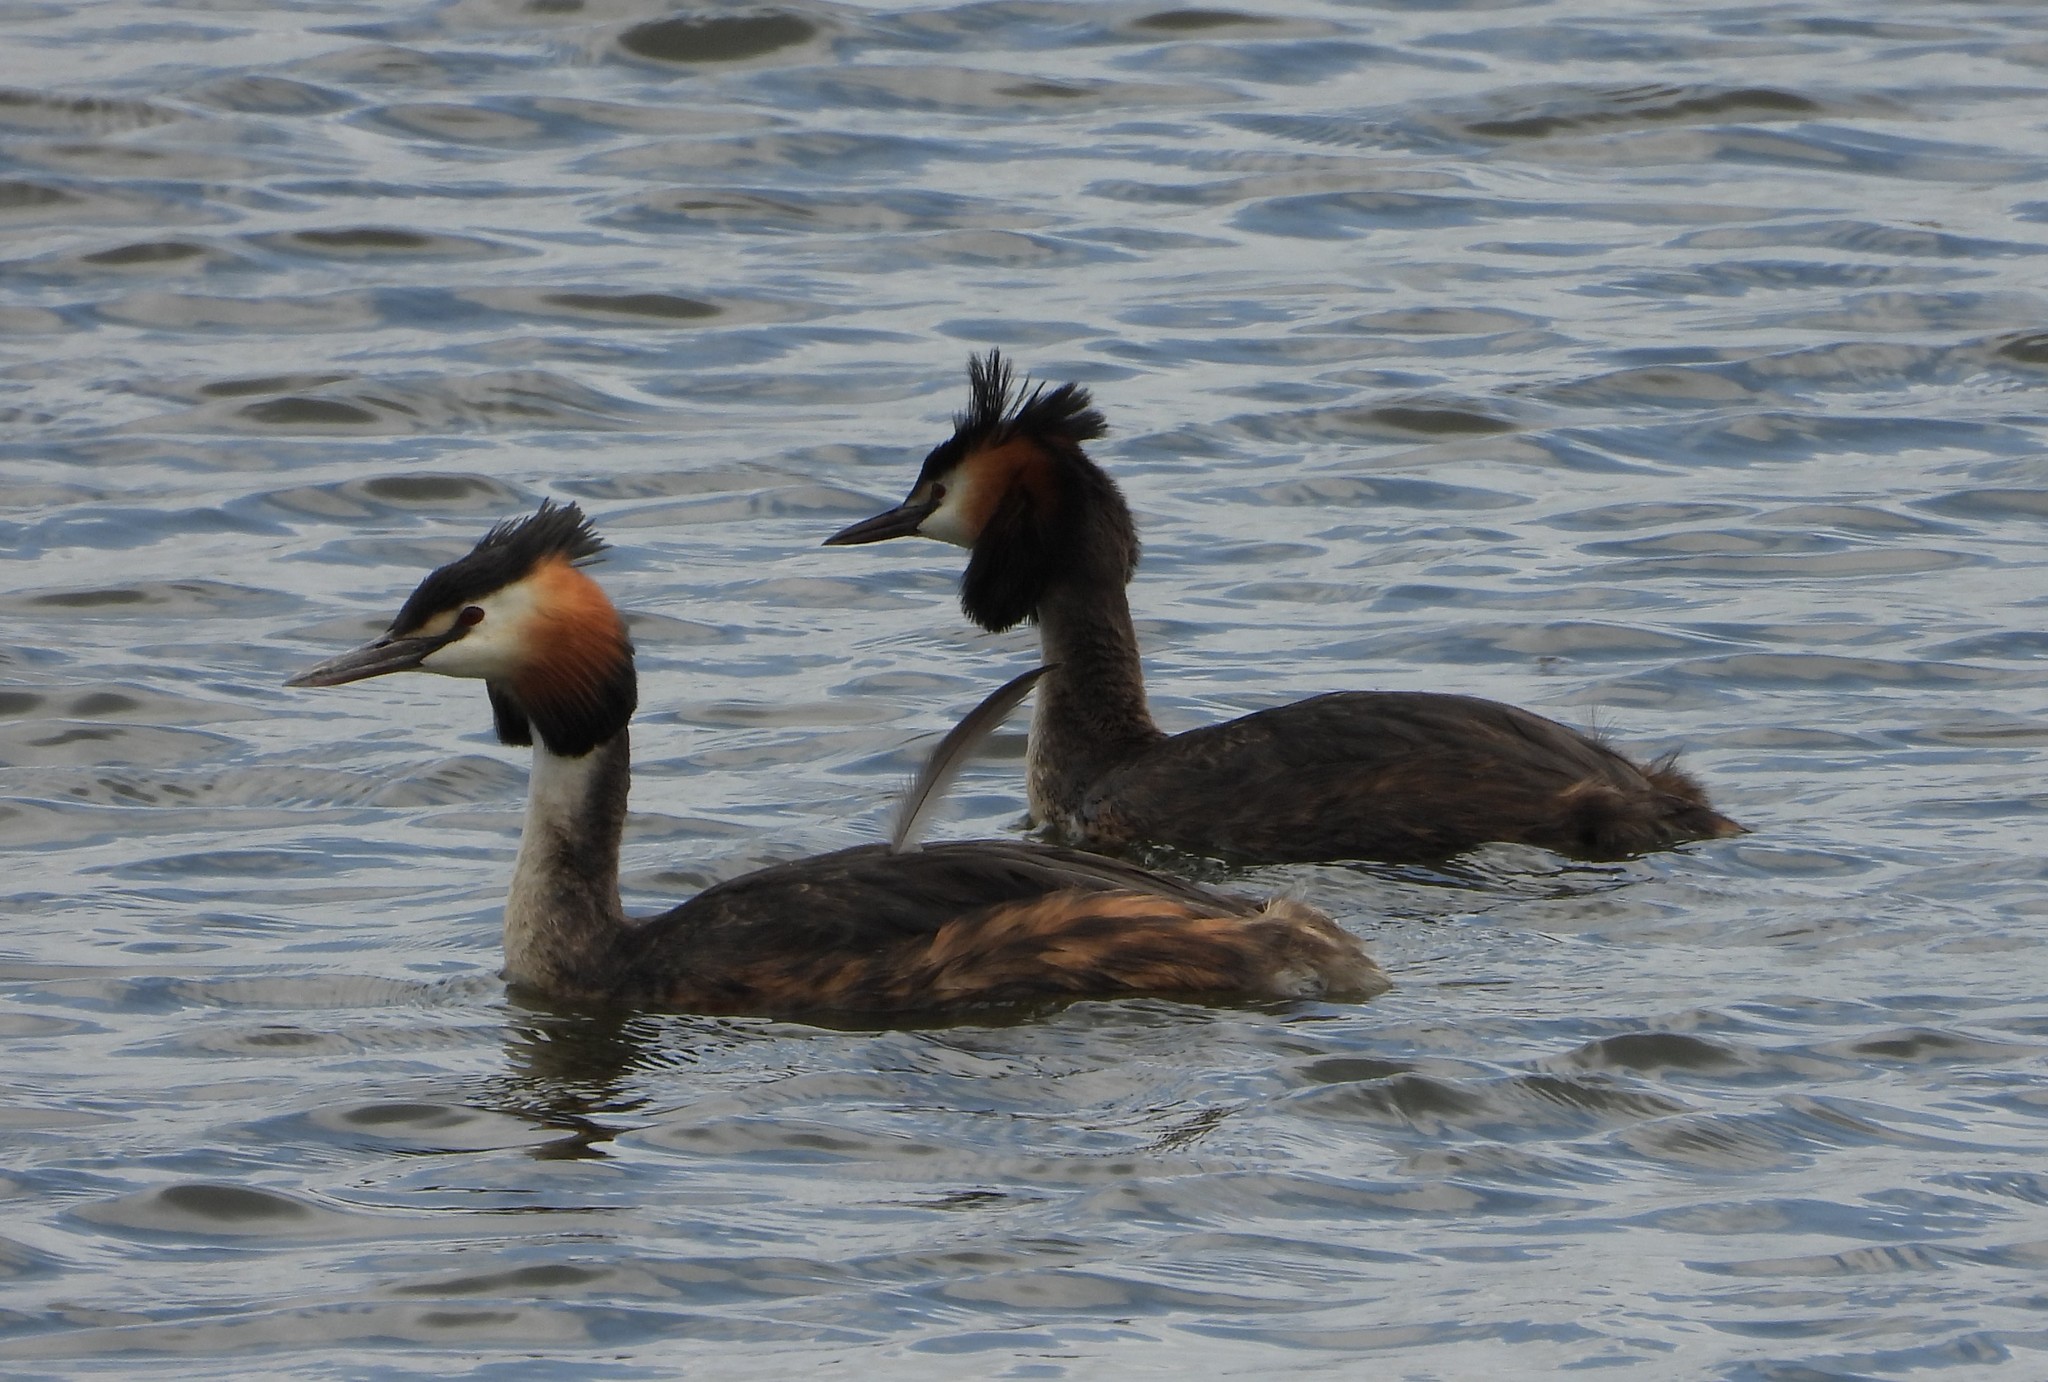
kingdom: Animalia
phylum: Chordata
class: Aves
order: Podicipediformes
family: Podicipedidae
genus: Podiceps
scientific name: Podiceps cristatus
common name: Great crested grebe
